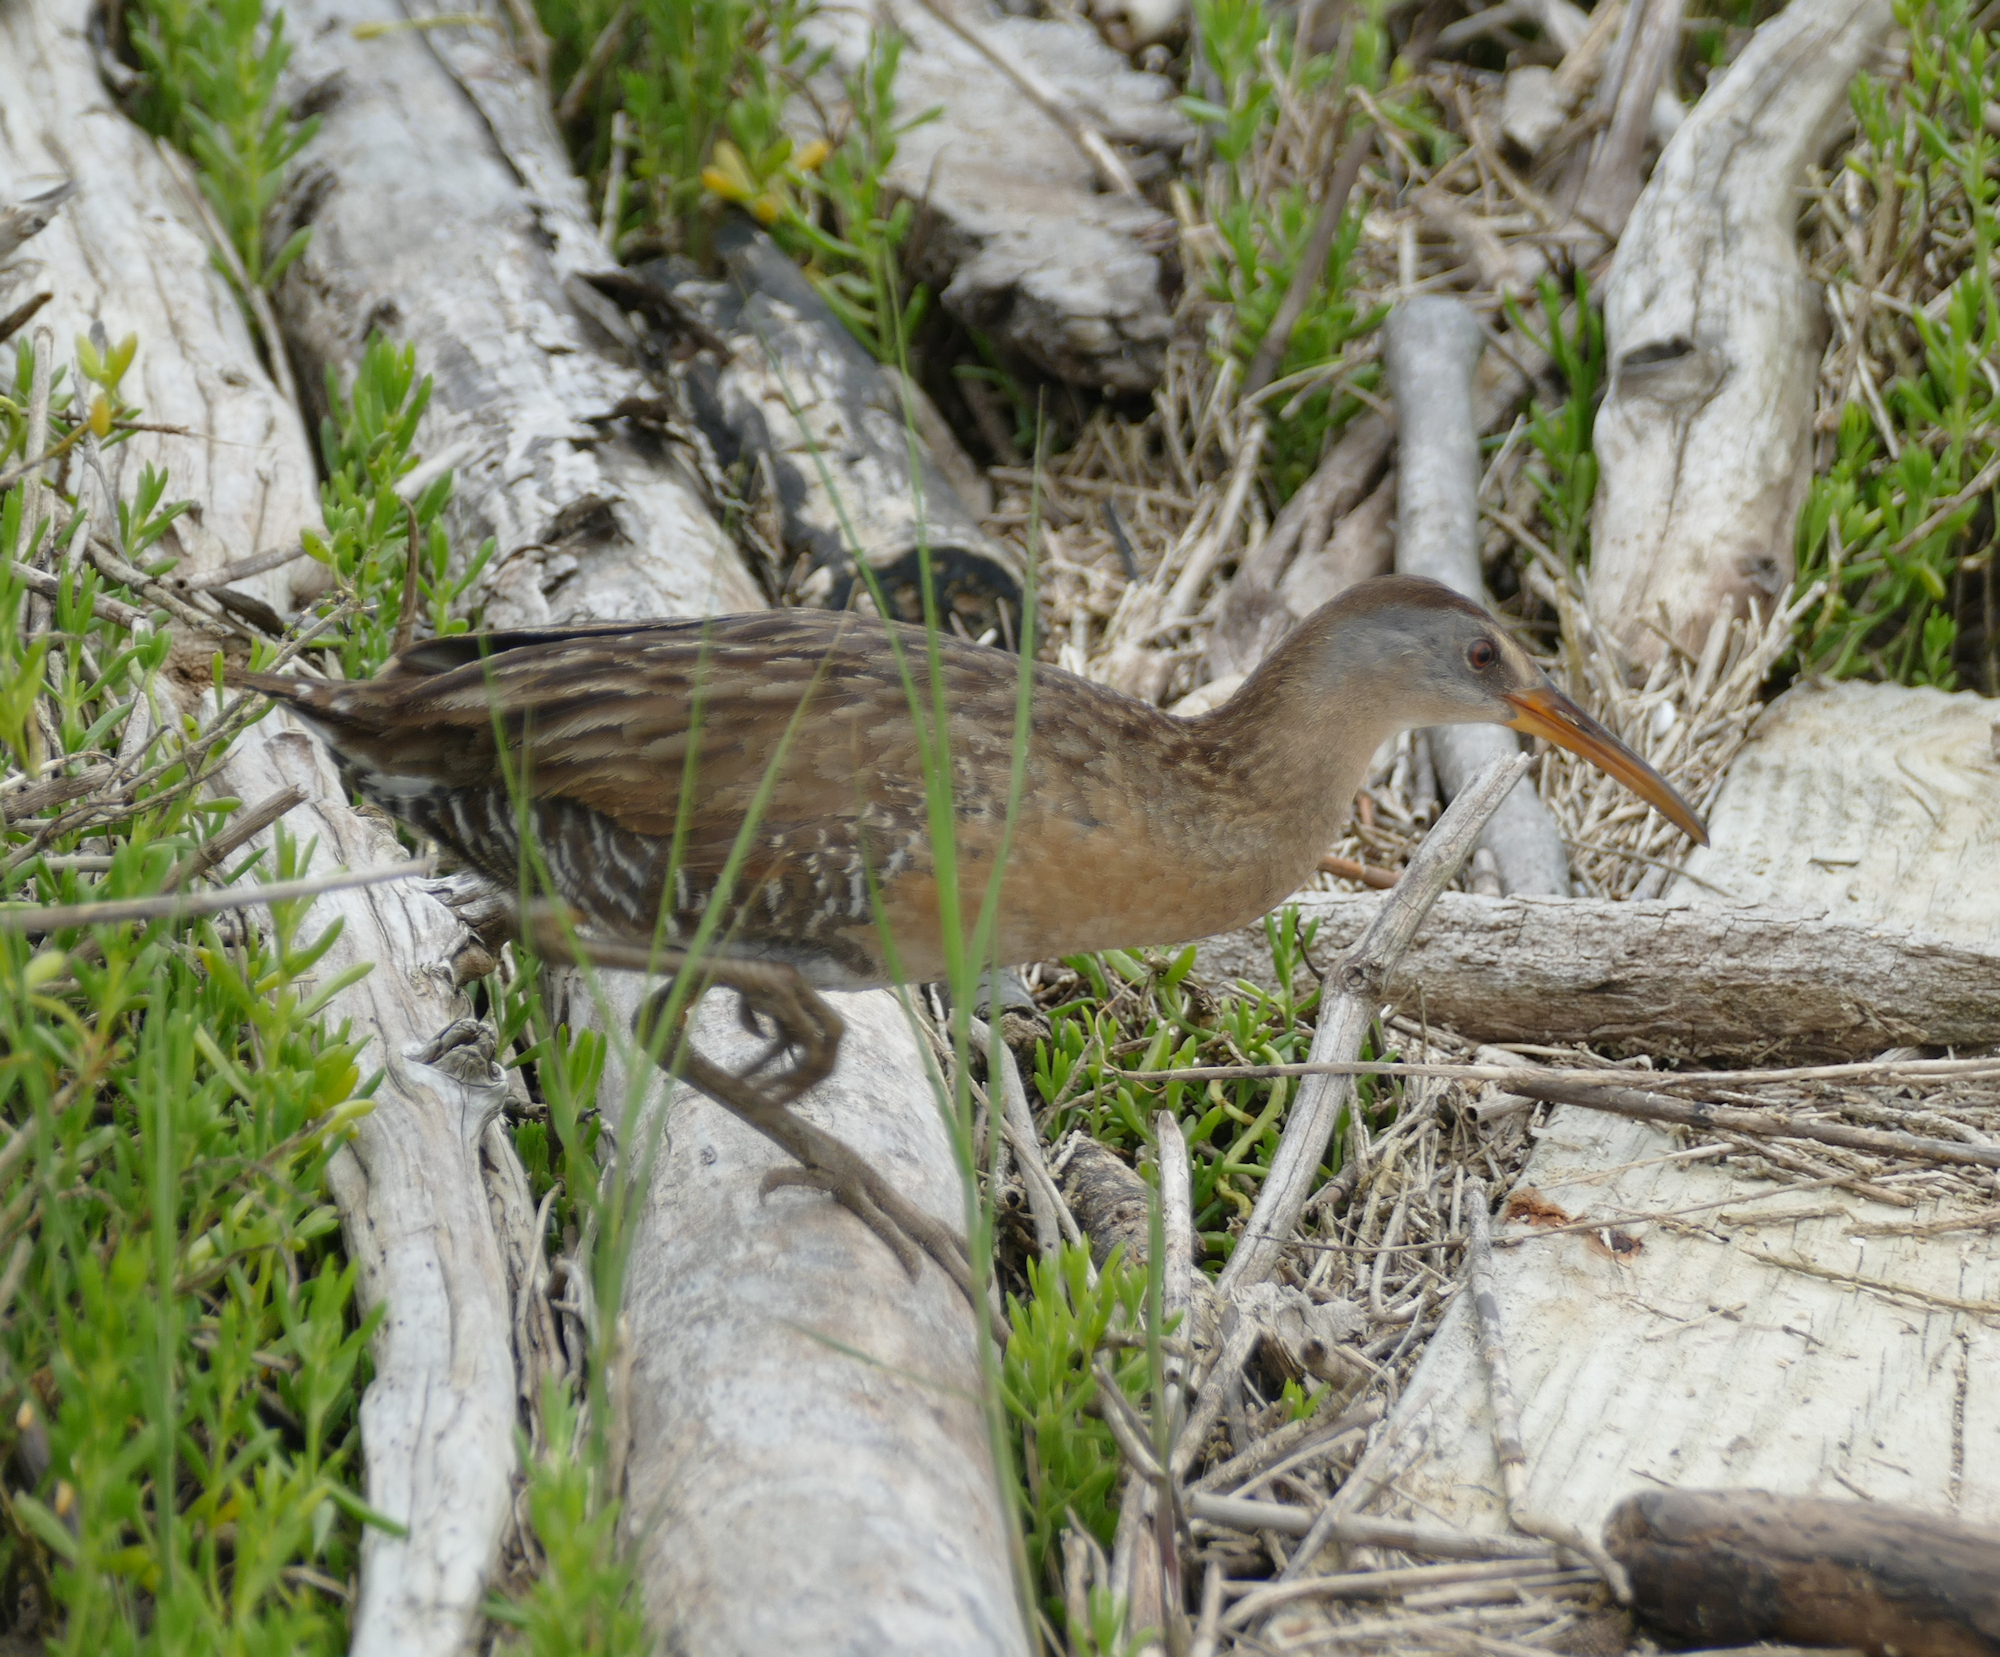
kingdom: Animalia
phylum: Chordata
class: Aves
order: Gruiformes
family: Rallidae
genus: Rallus
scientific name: Rallus crepitans
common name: Clapper rail
